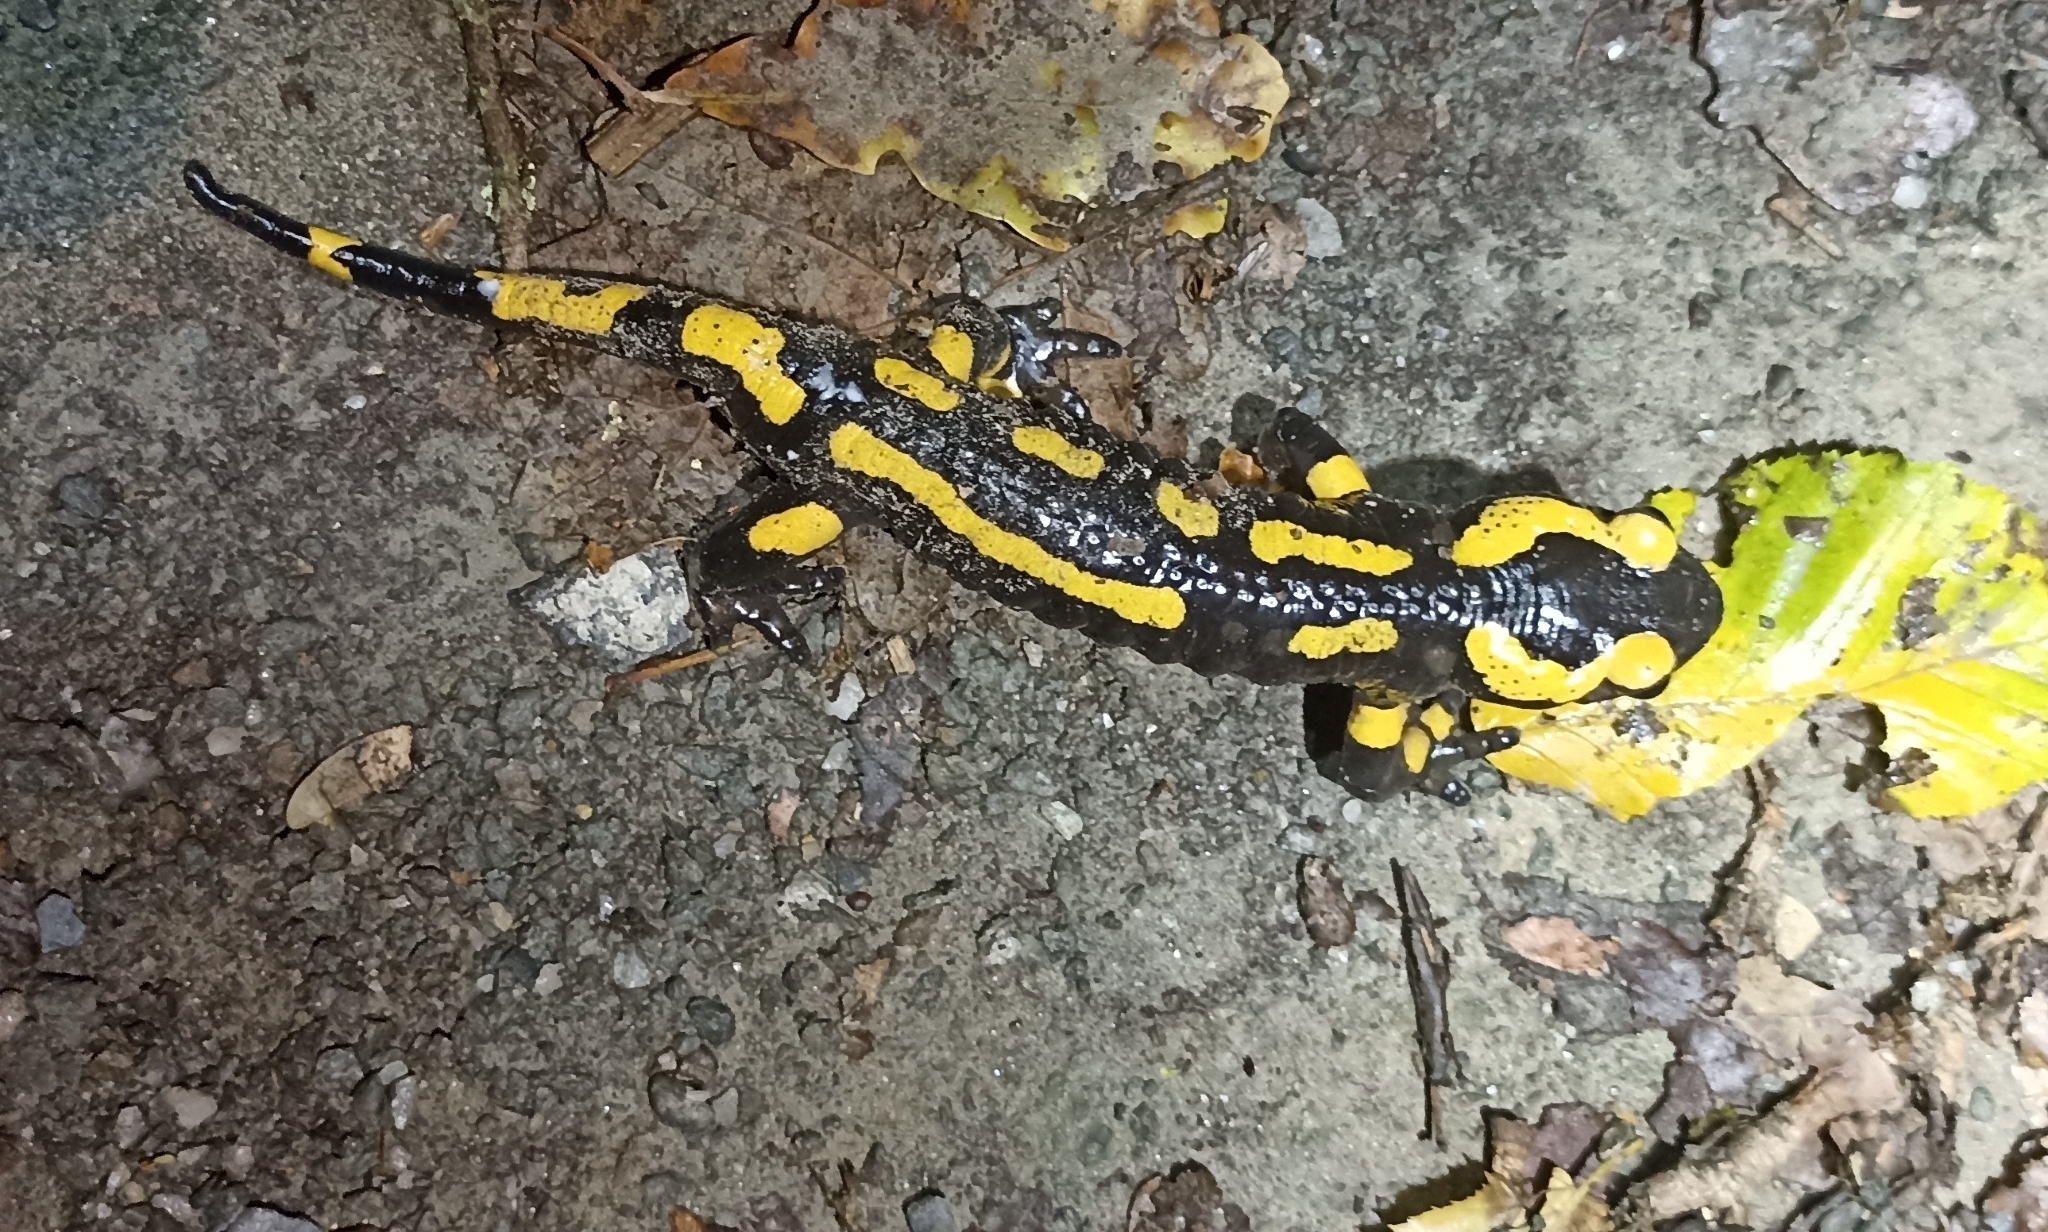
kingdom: Animalia
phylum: Chordata
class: Amphibia
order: Caudata
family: Salamandridae
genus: Salamandra
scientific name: Salamandra salamandra
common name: Fire salamander
